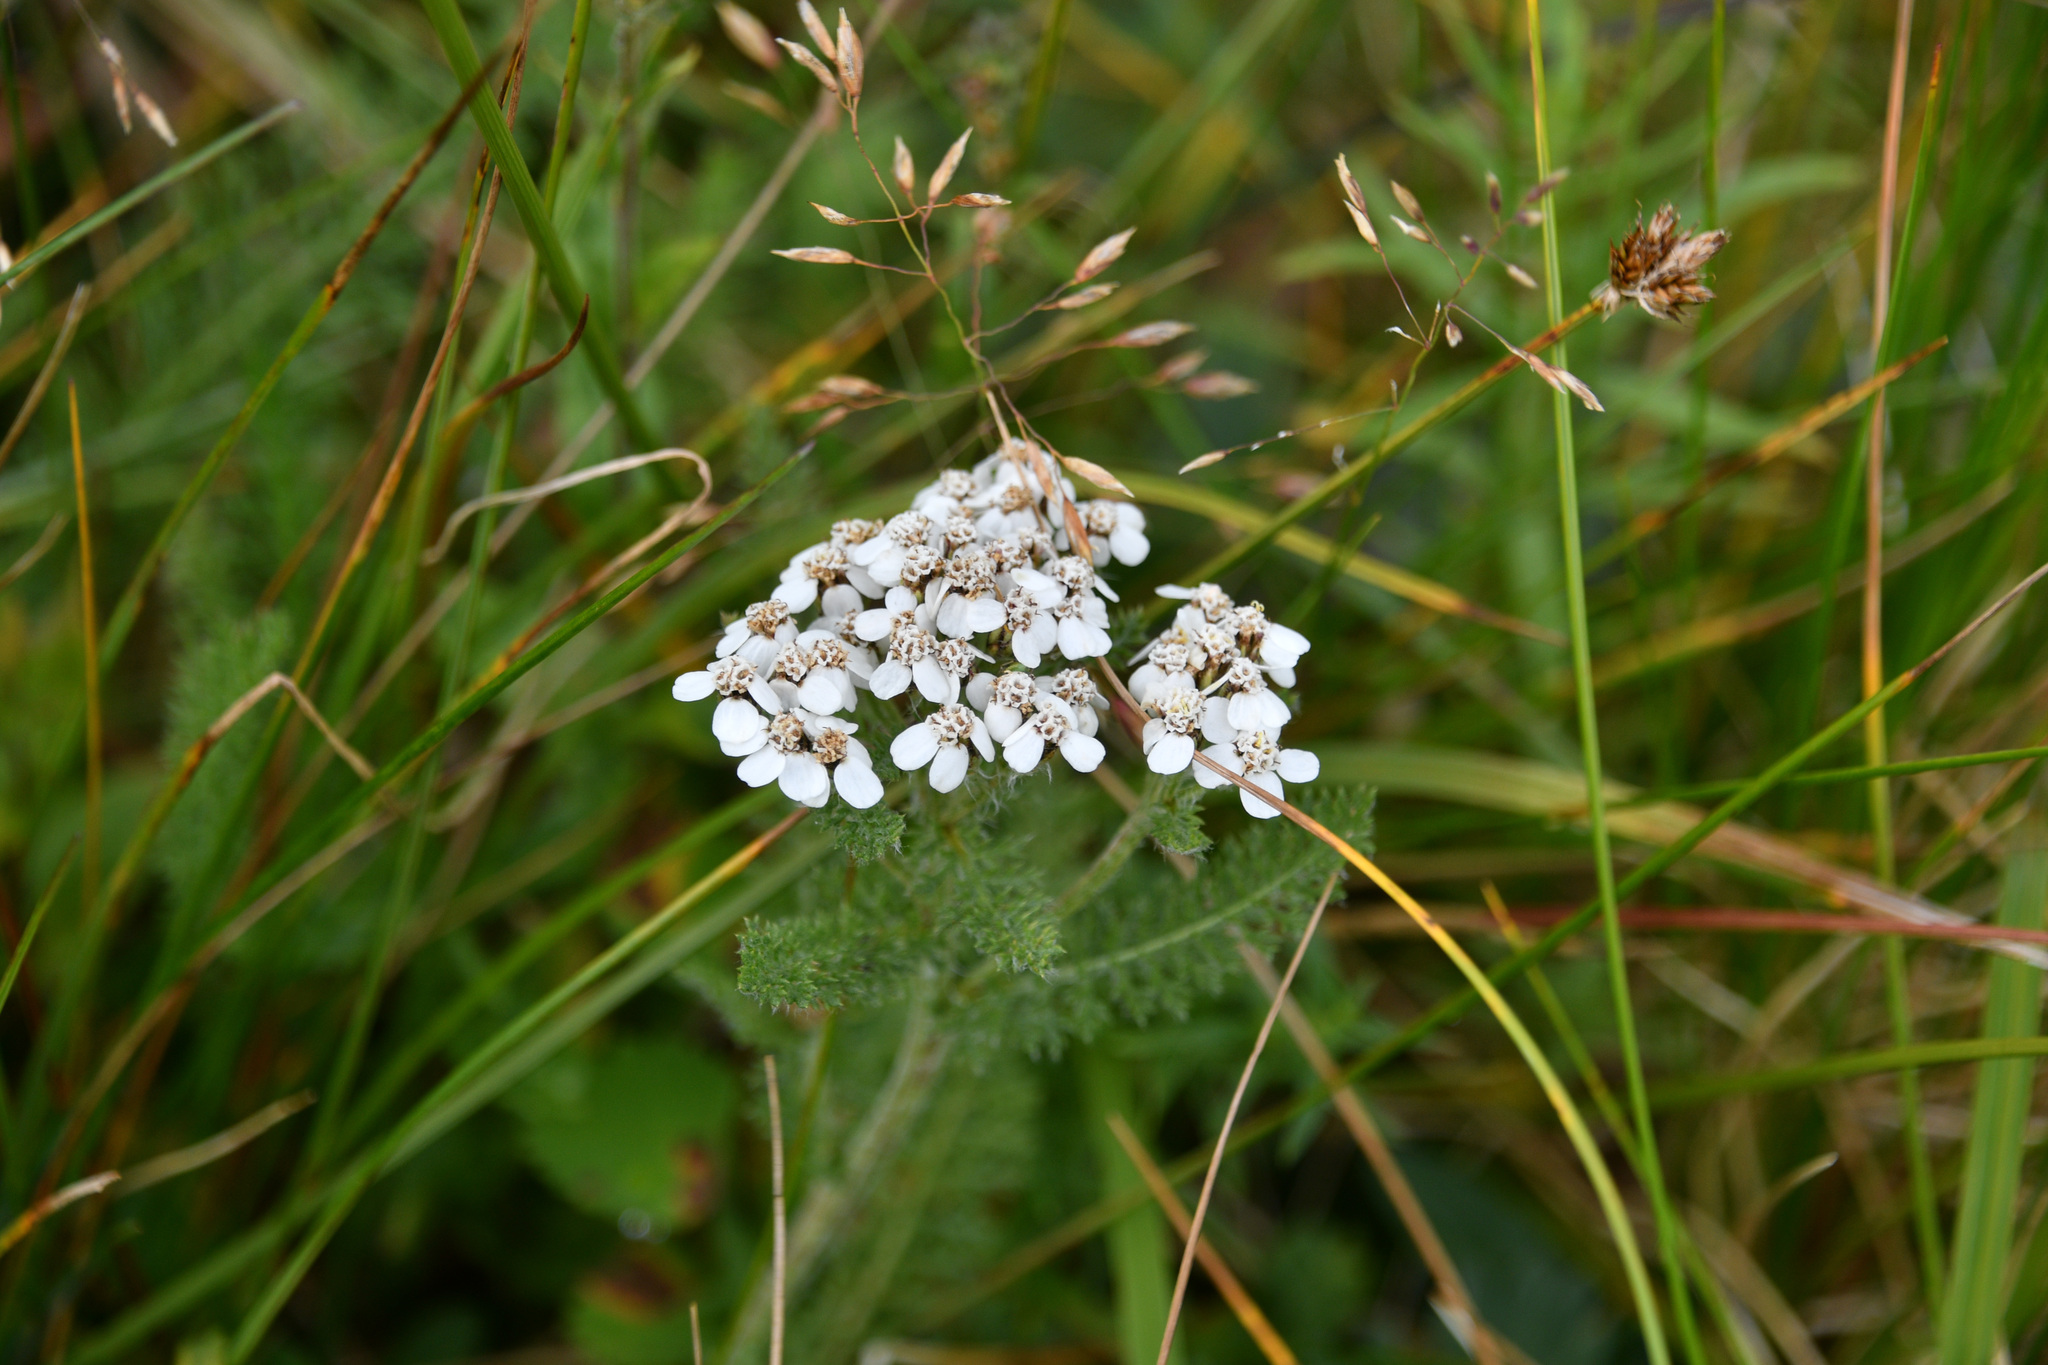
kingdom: Plantae
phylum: Tracheophyta
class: Magnoliopsida
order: Asterales
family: Asteraceae
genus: Achillea
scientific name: Achillea millefolium
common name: Yarrow
